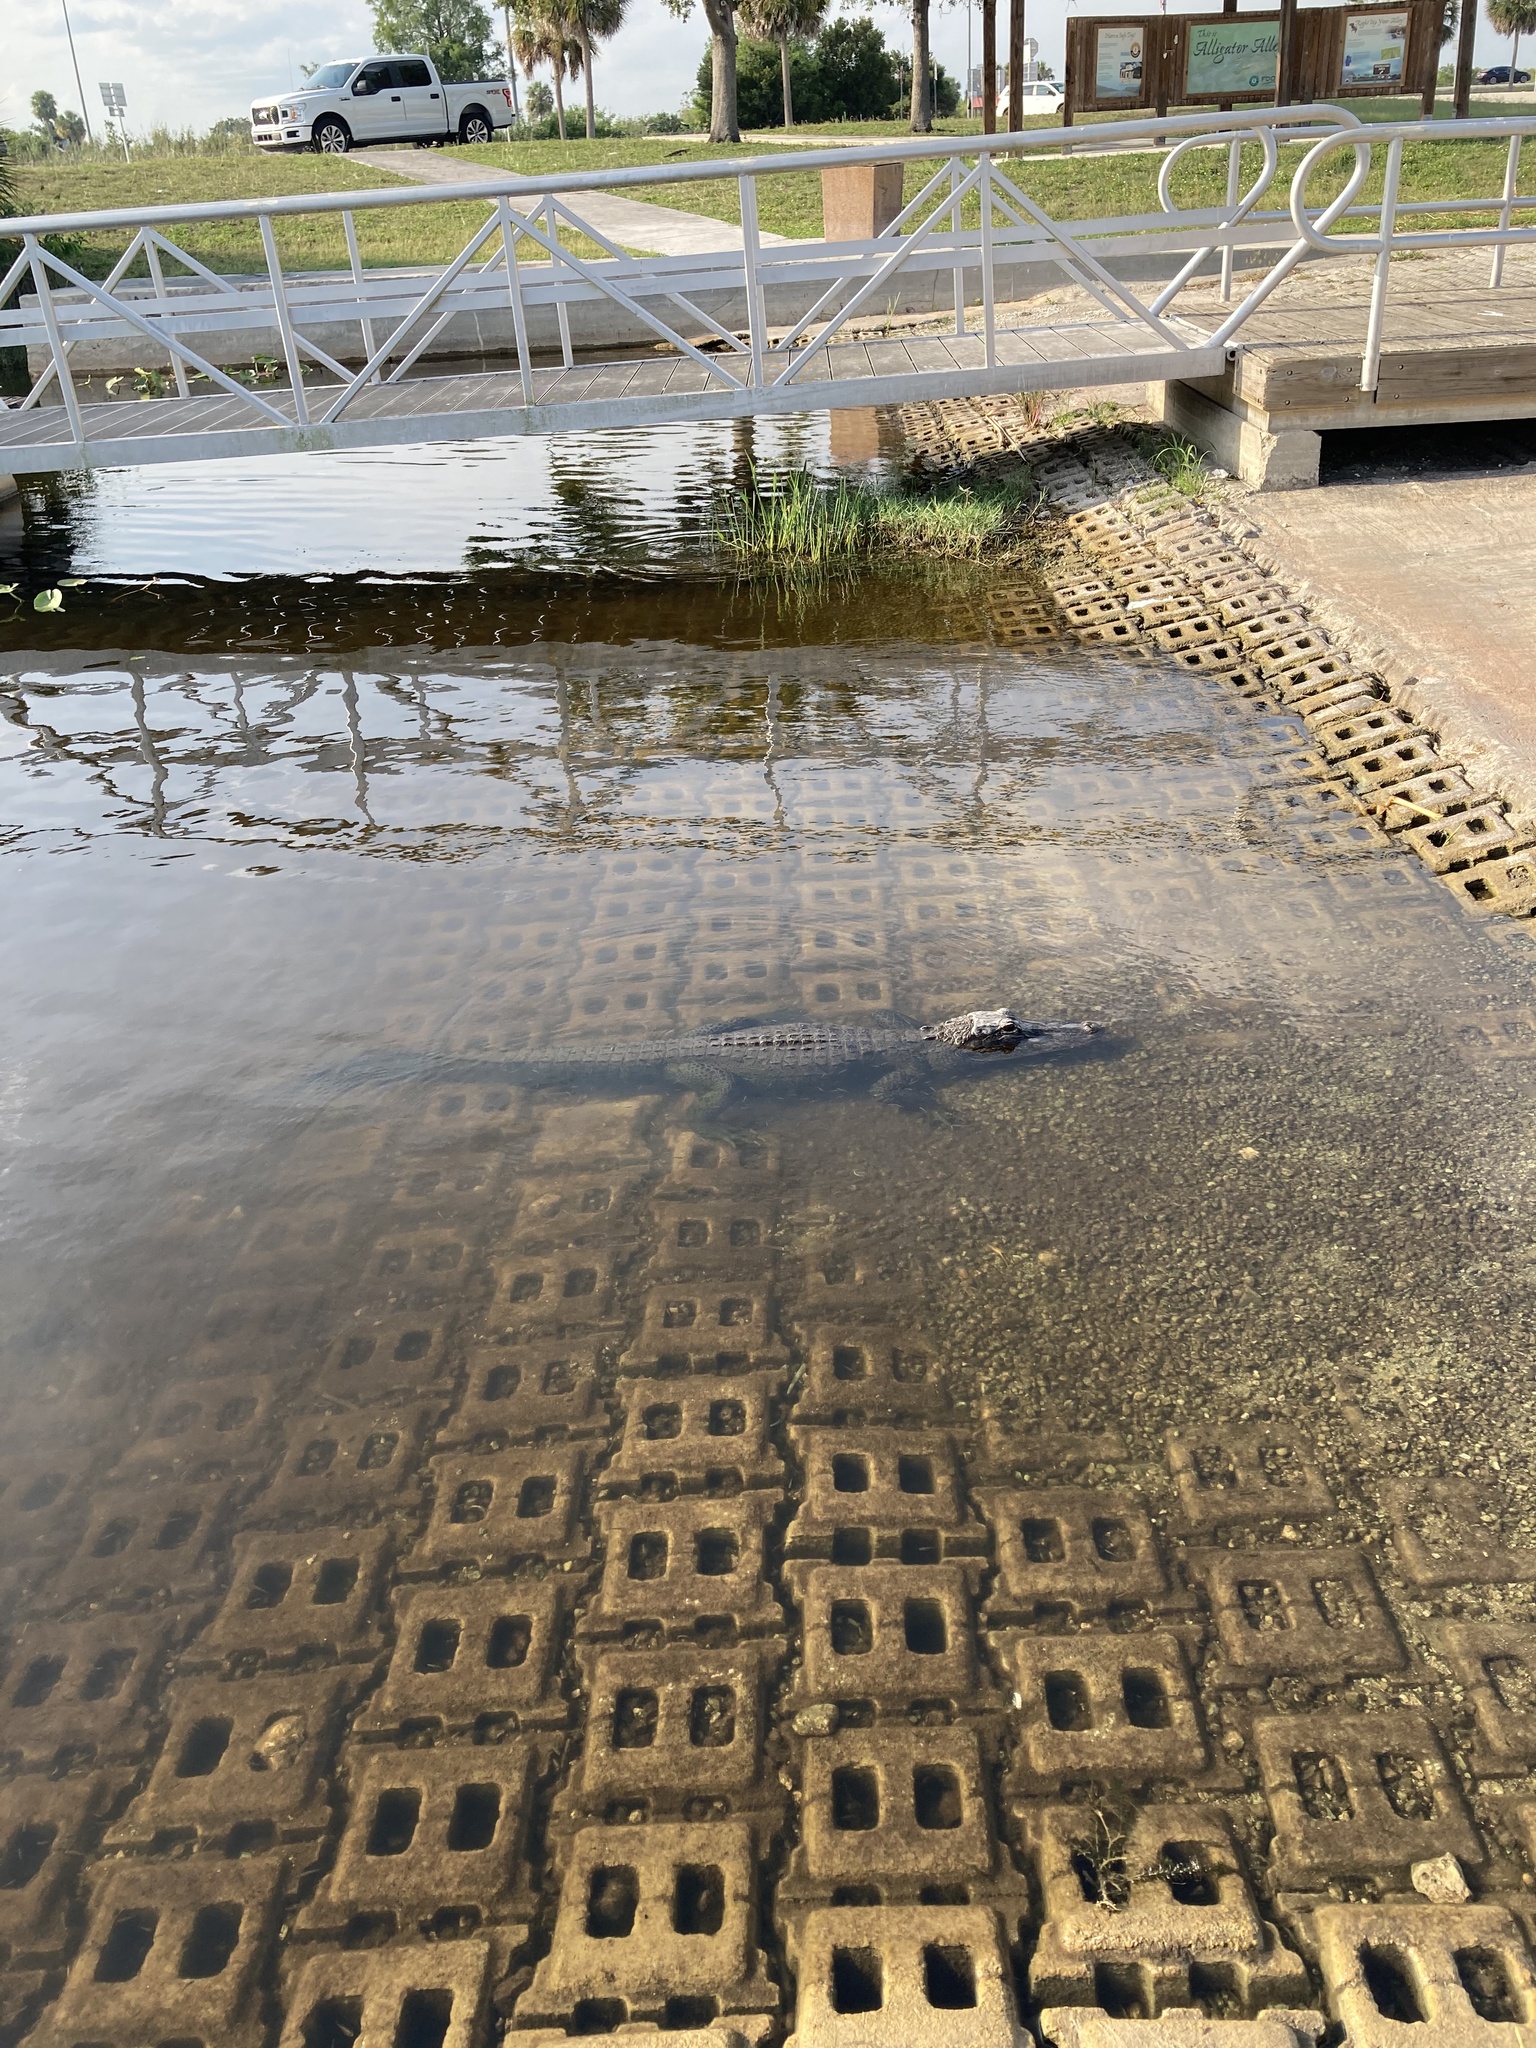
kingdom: Animalia
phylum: Chordata
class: Crocodylia
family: Alligatoridae
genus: Alligator
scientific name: Alligator mississippiensis
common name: American alligator
